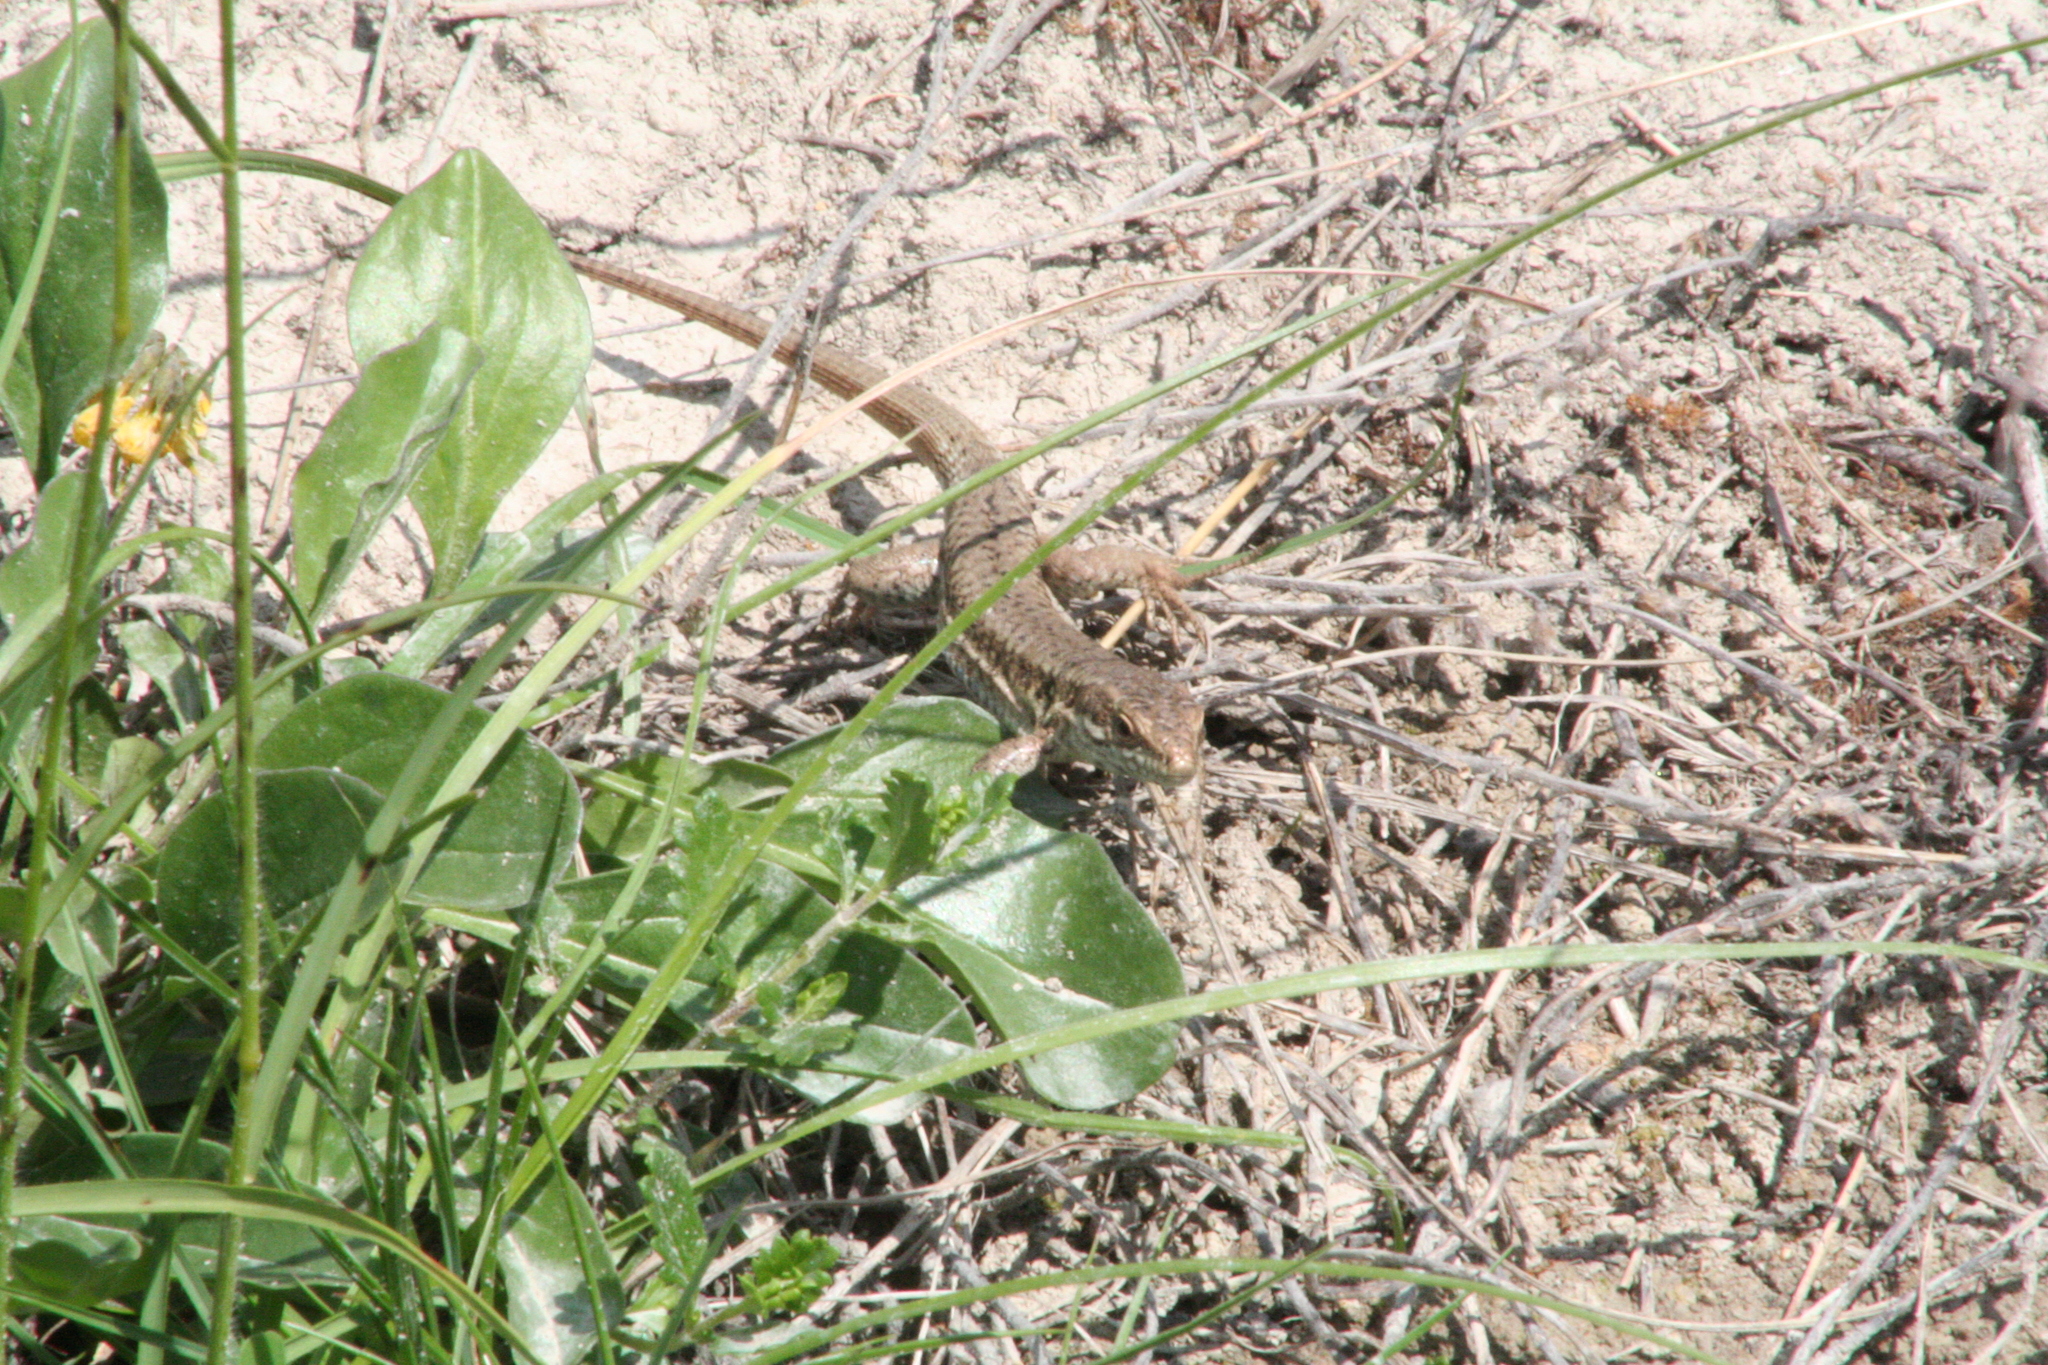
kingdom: Animalia
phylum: Chordata
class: Squamata
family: Lacertidae
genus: Podarcis
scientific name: Podarcis muralis
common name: Common wall lizard
